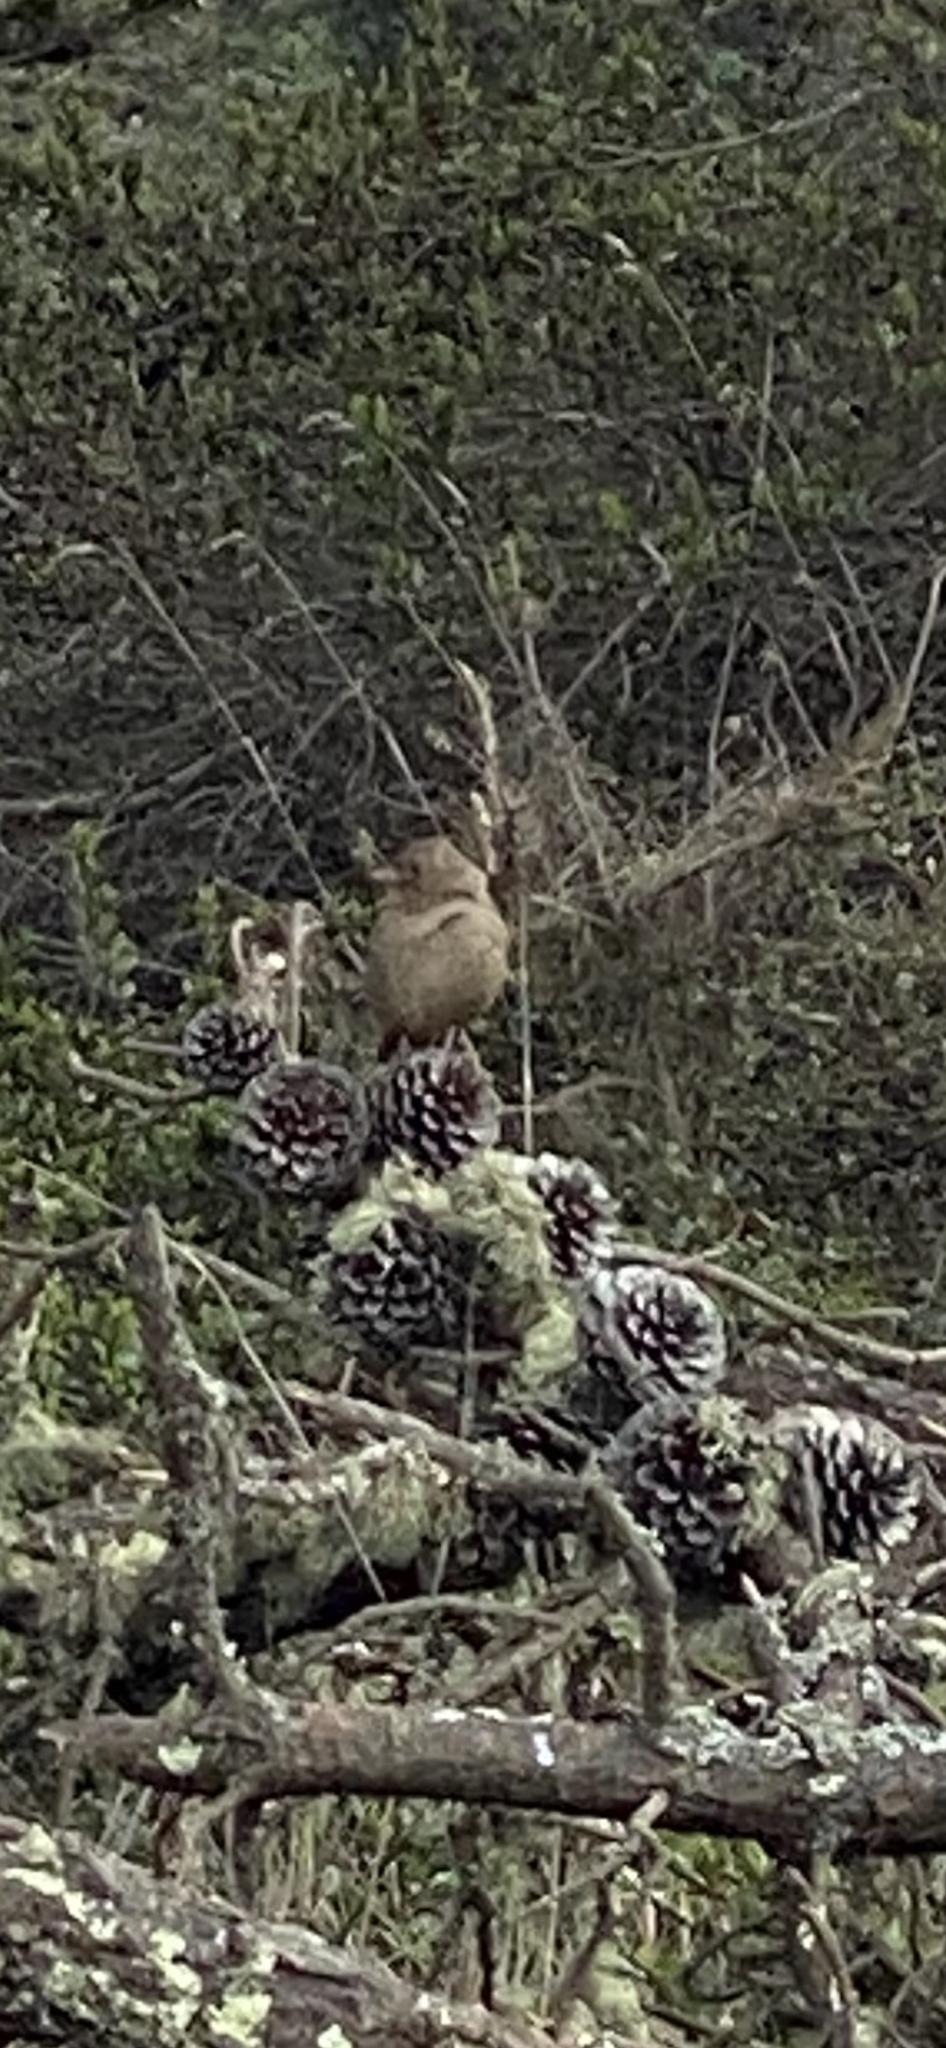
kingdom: Animalia
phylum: Chordata
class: Aves
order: Passeriformes
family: Passerellidae
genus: Melozone
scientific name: Melozone crissalis
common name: California towhee
